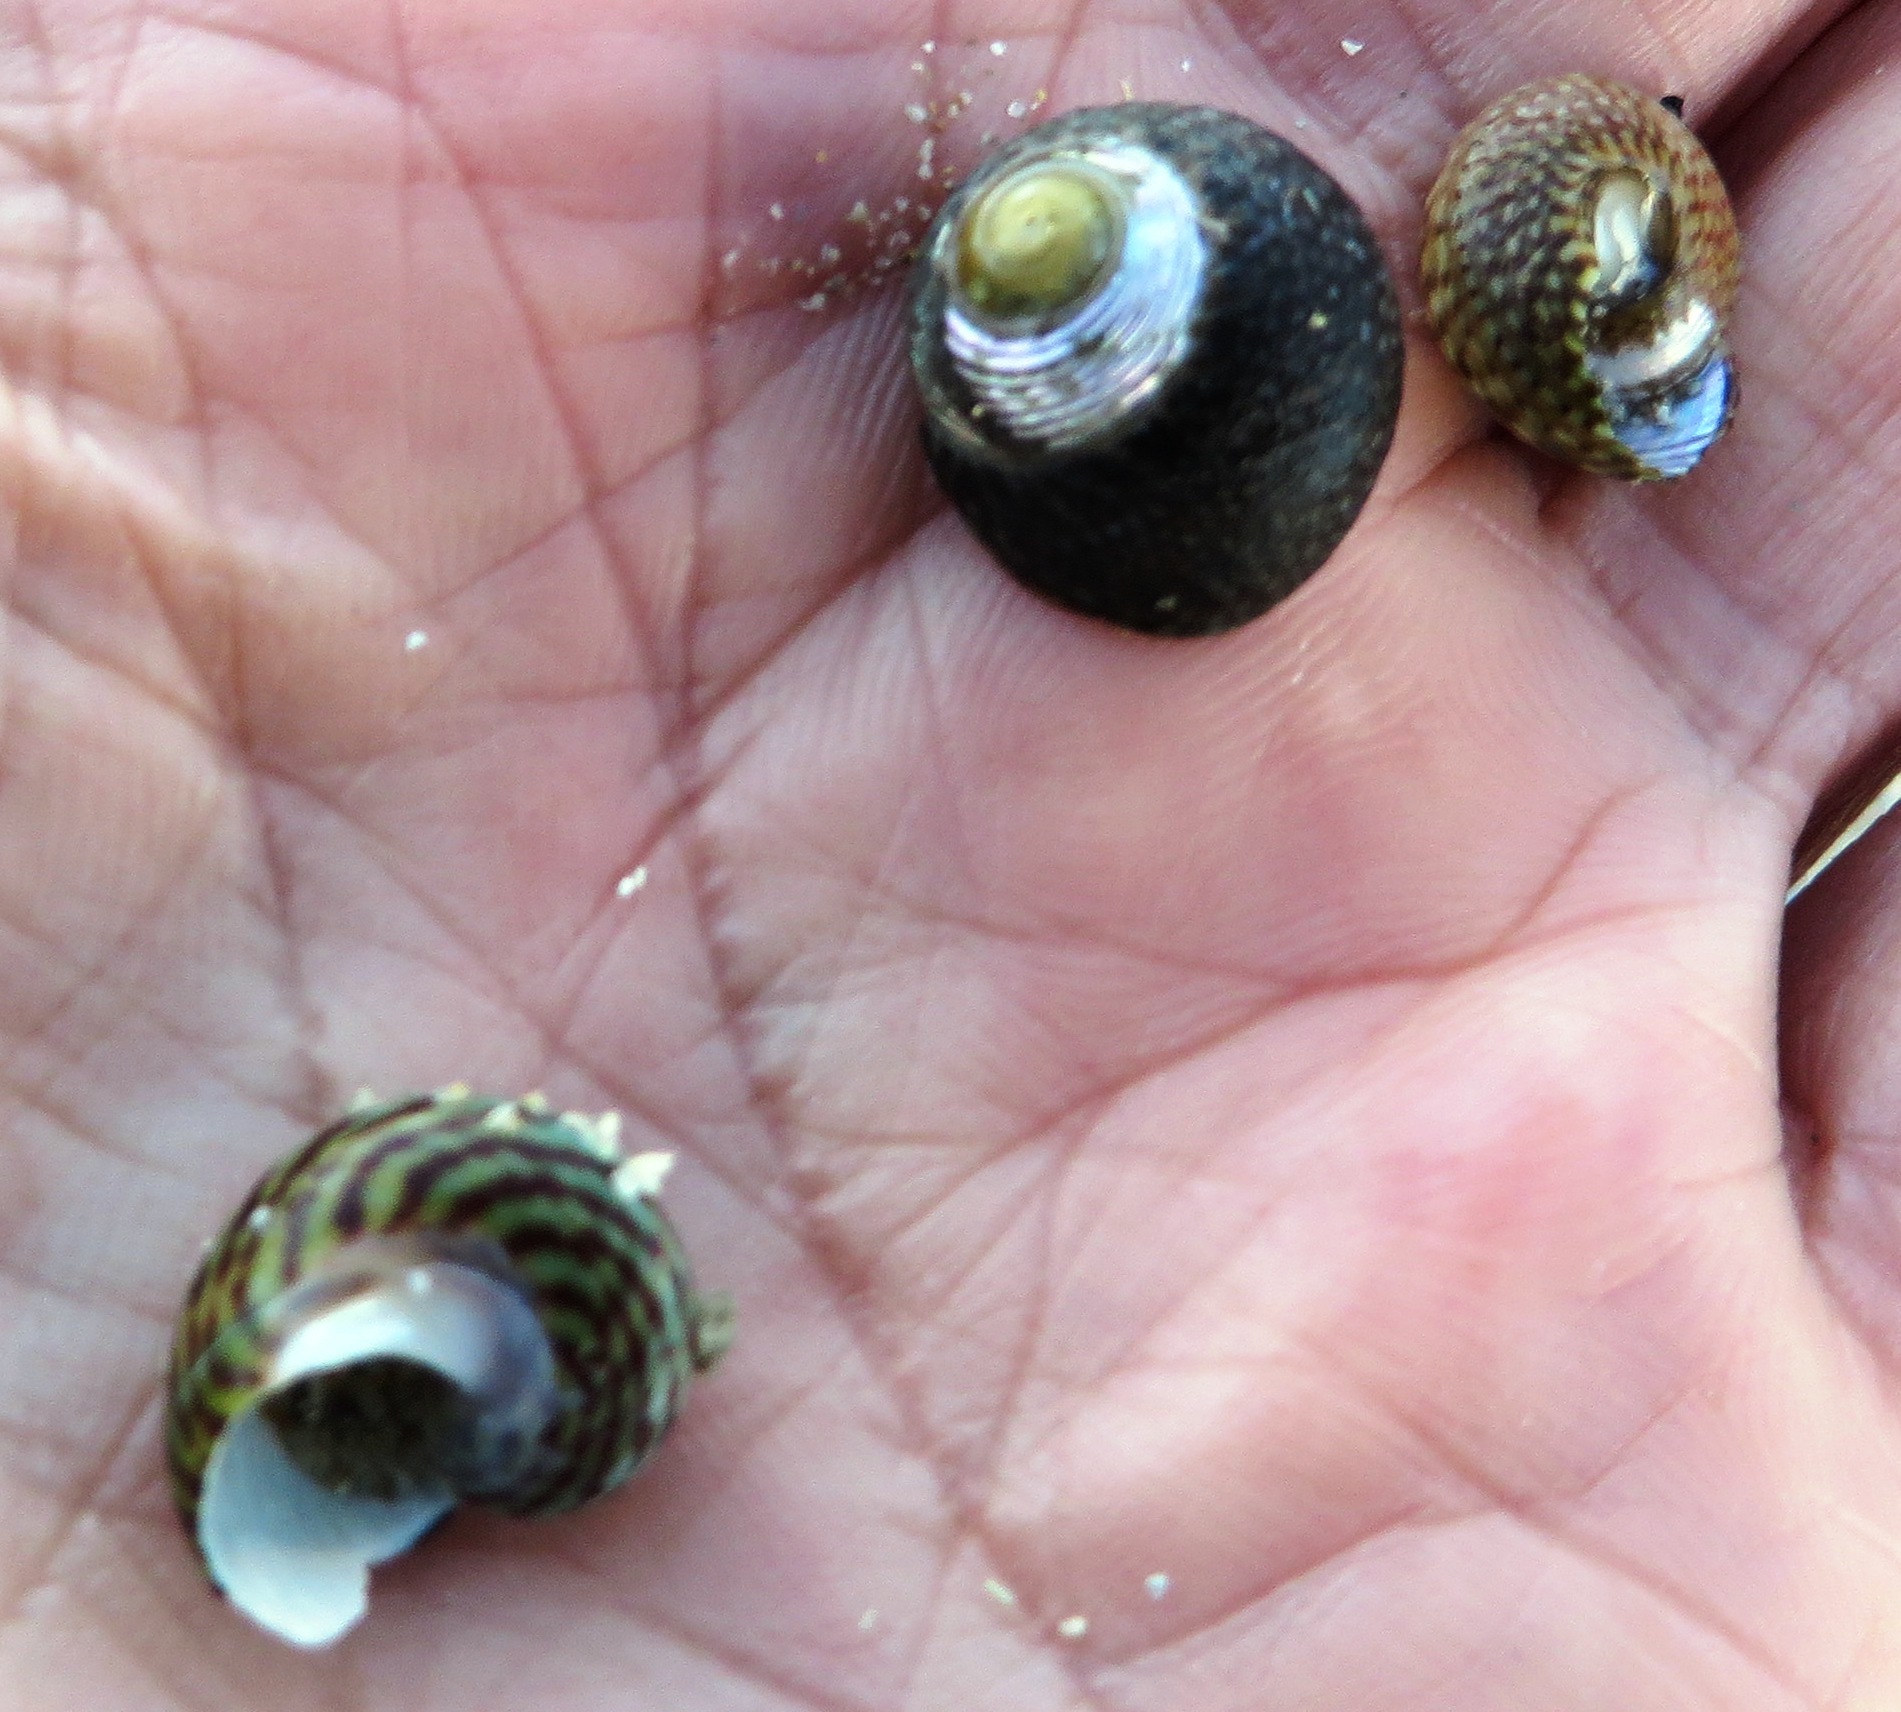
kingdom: Animalia
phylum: Mollusca
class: Gastropoda
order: Trochida
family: Trochidae
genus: Gibbula
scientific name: Gibbula cicer
